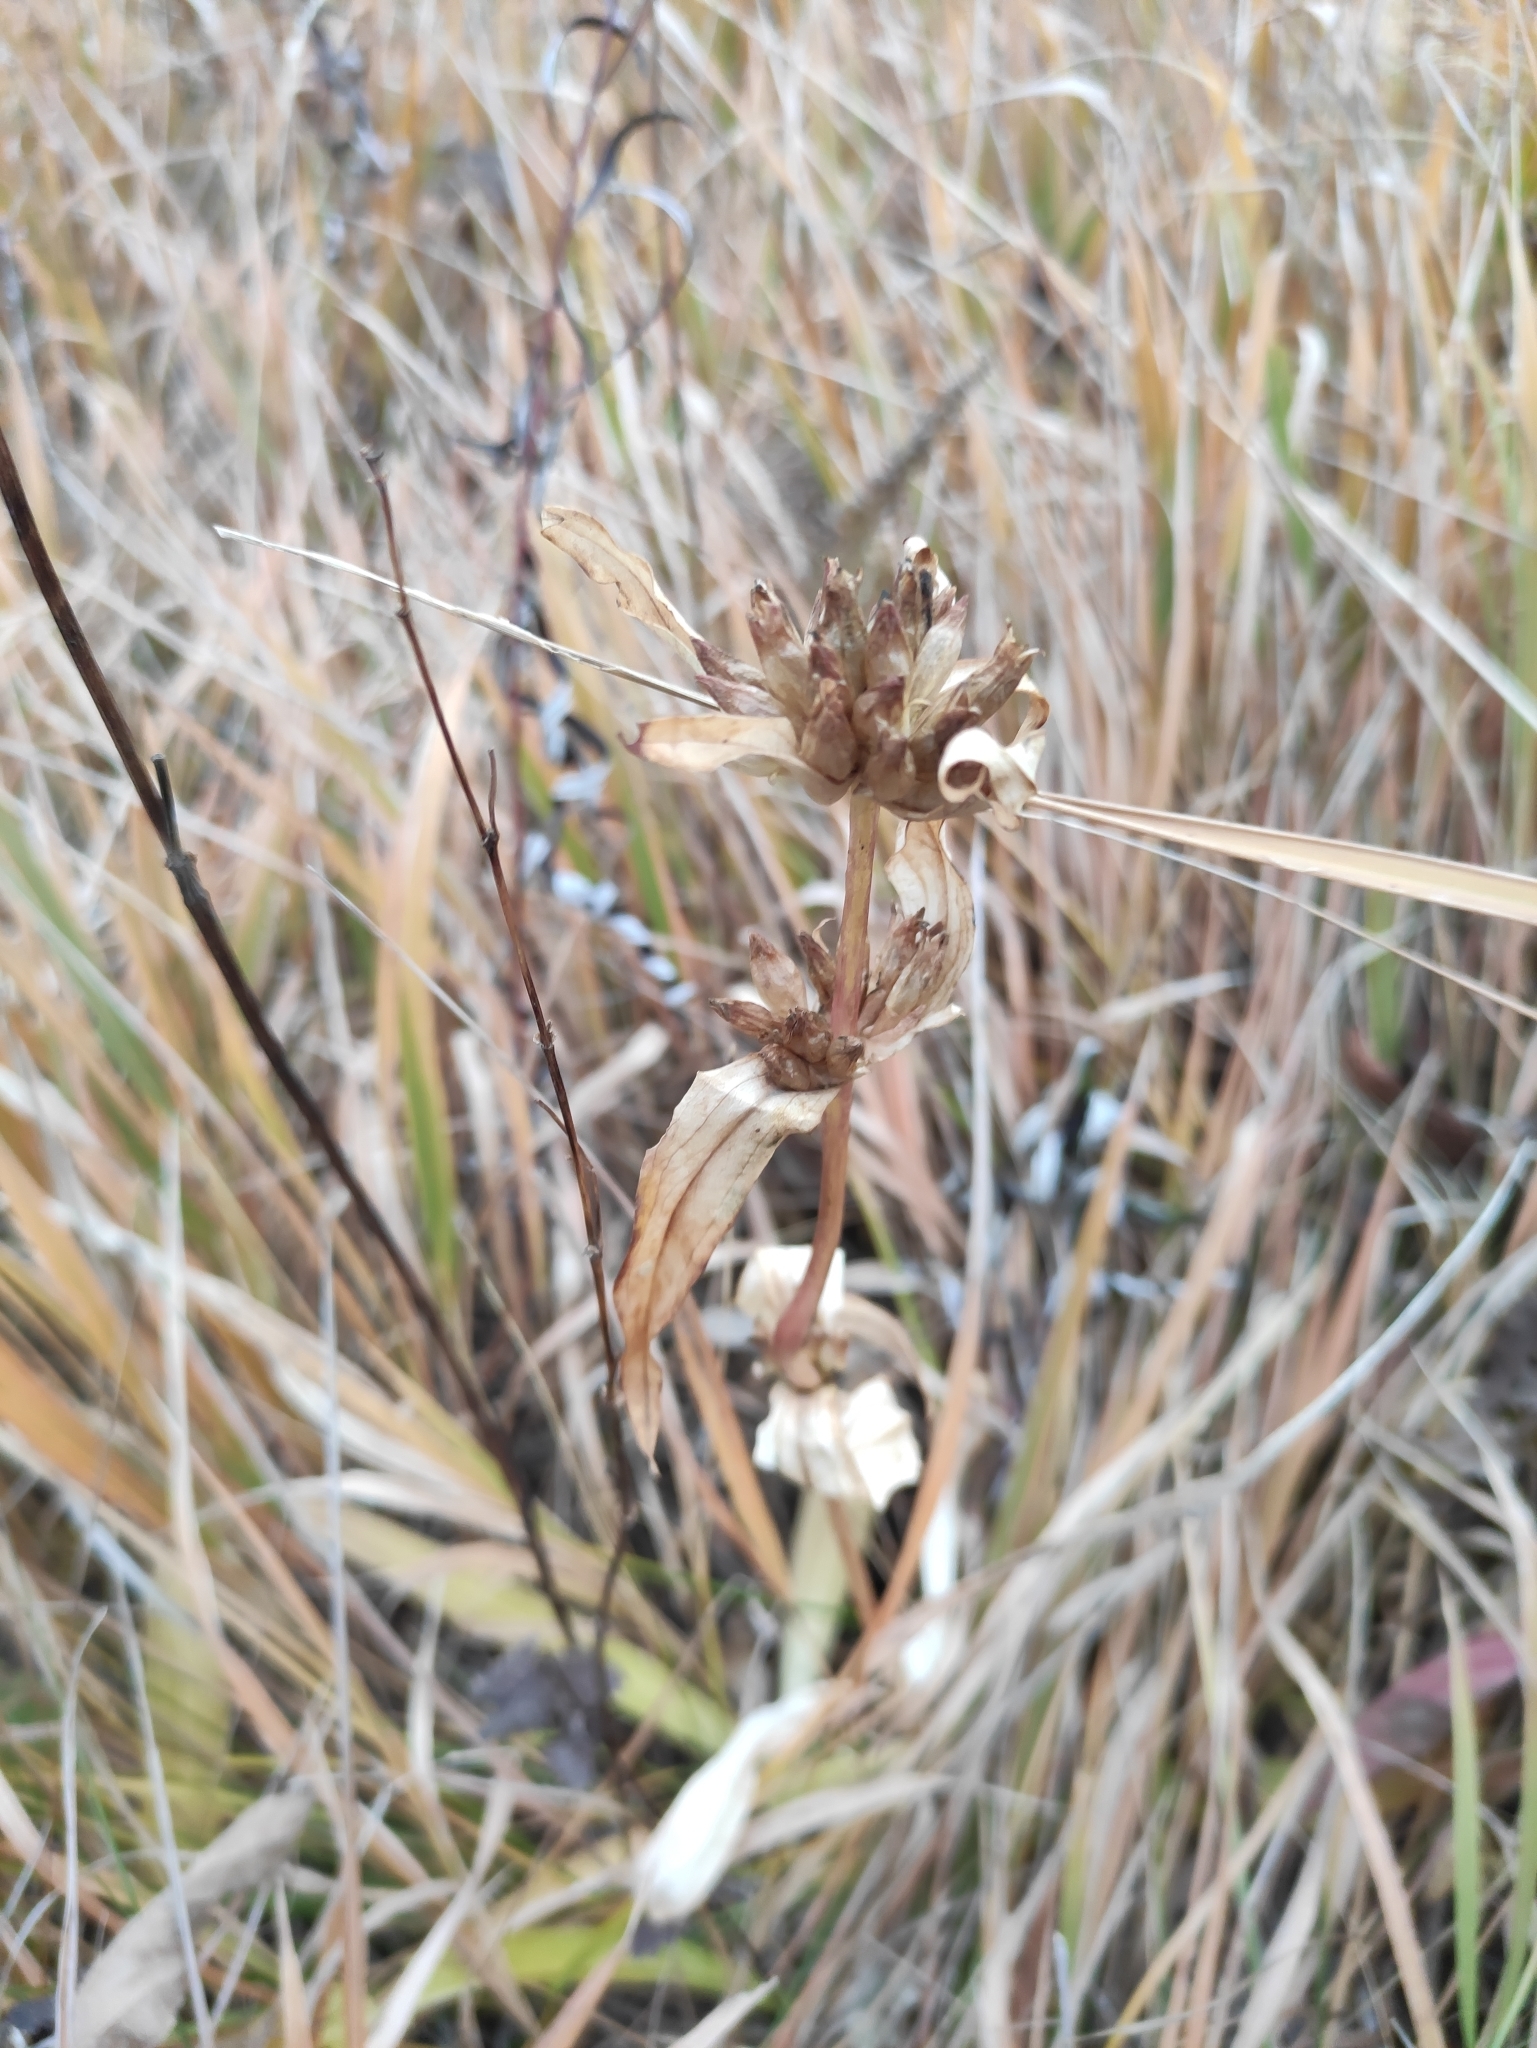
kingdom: Plantae
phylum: Tracheophyta
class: Magnoliopsida
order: Gentianales
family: Gentianaceae
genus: Gentiana
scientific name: Gentiana macrophylla
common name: Large-leaf gentian
